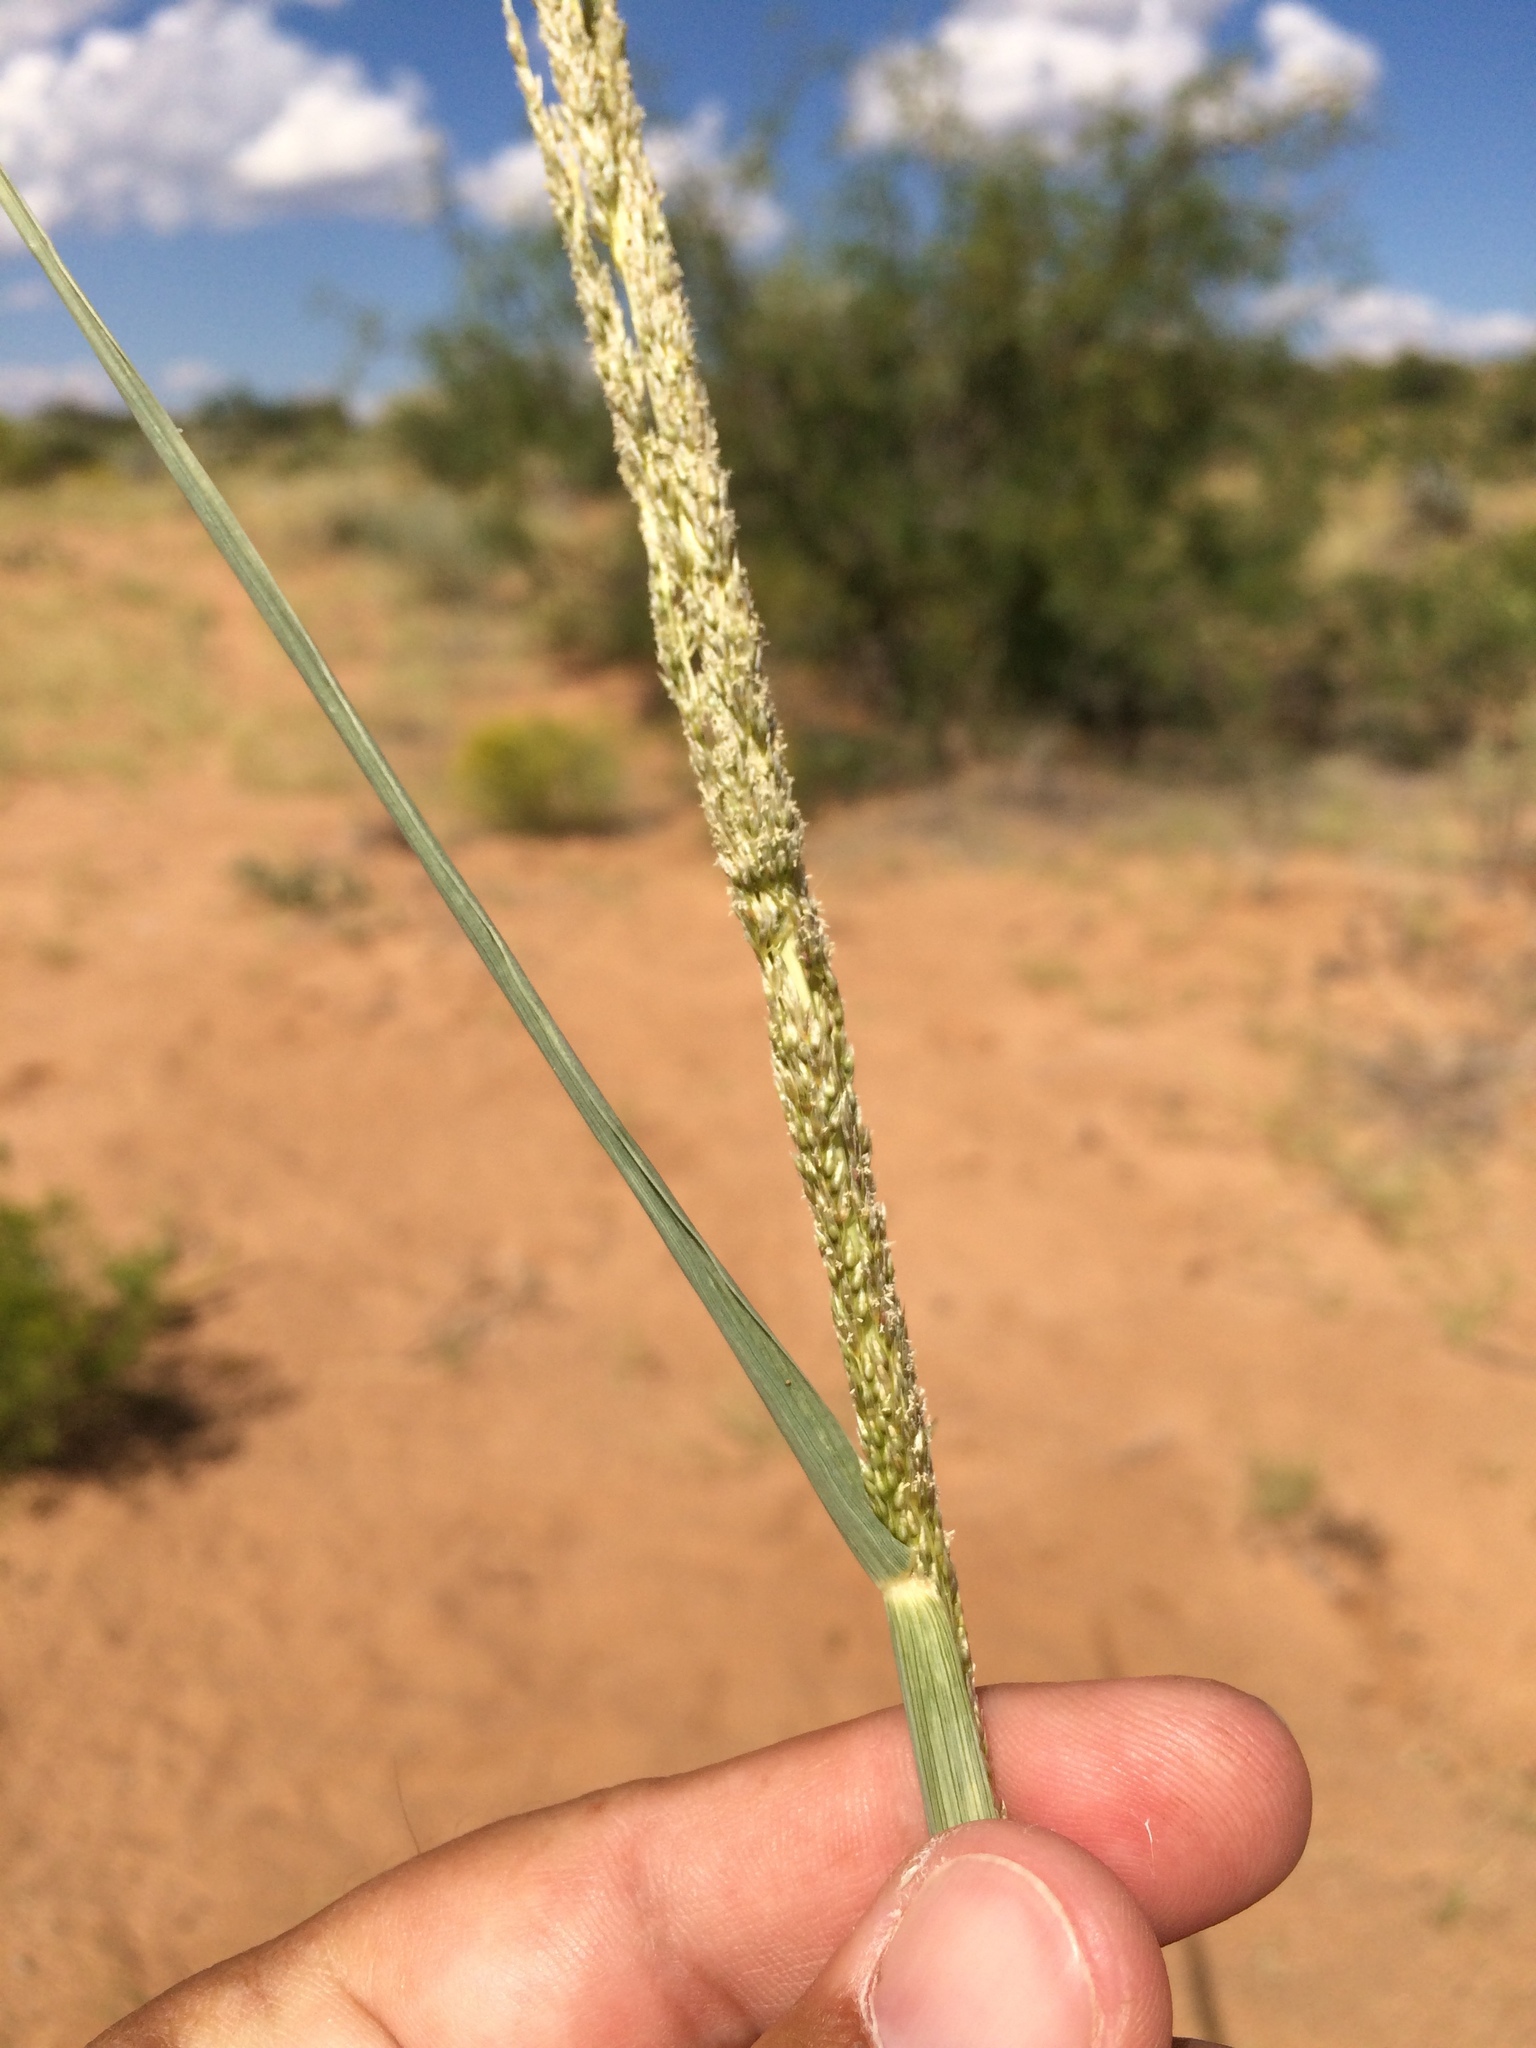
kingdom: Plantae
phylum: Tracheophyta
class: Liliopsida
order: Poales
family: Poaceae
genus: Sporobolus
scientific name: Sporobolus giganteus
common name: Giant dropseed
